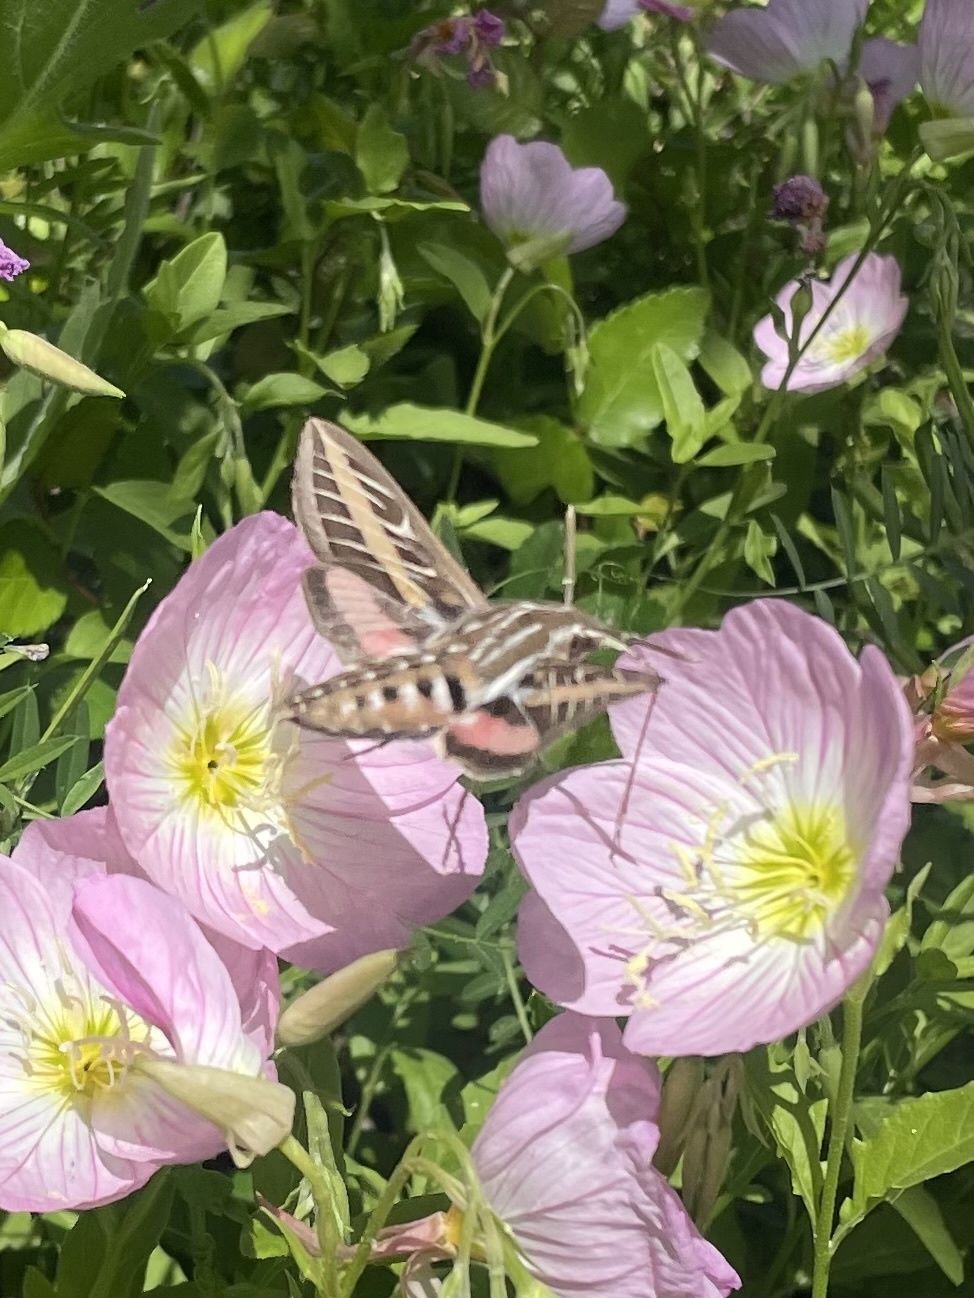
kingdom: Animalia
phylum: Arthropoda
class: Insecta
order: Lepidoptera
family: Sphingidae
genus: Hyles
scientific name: Hyles lineata
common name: White-lined sphinx
